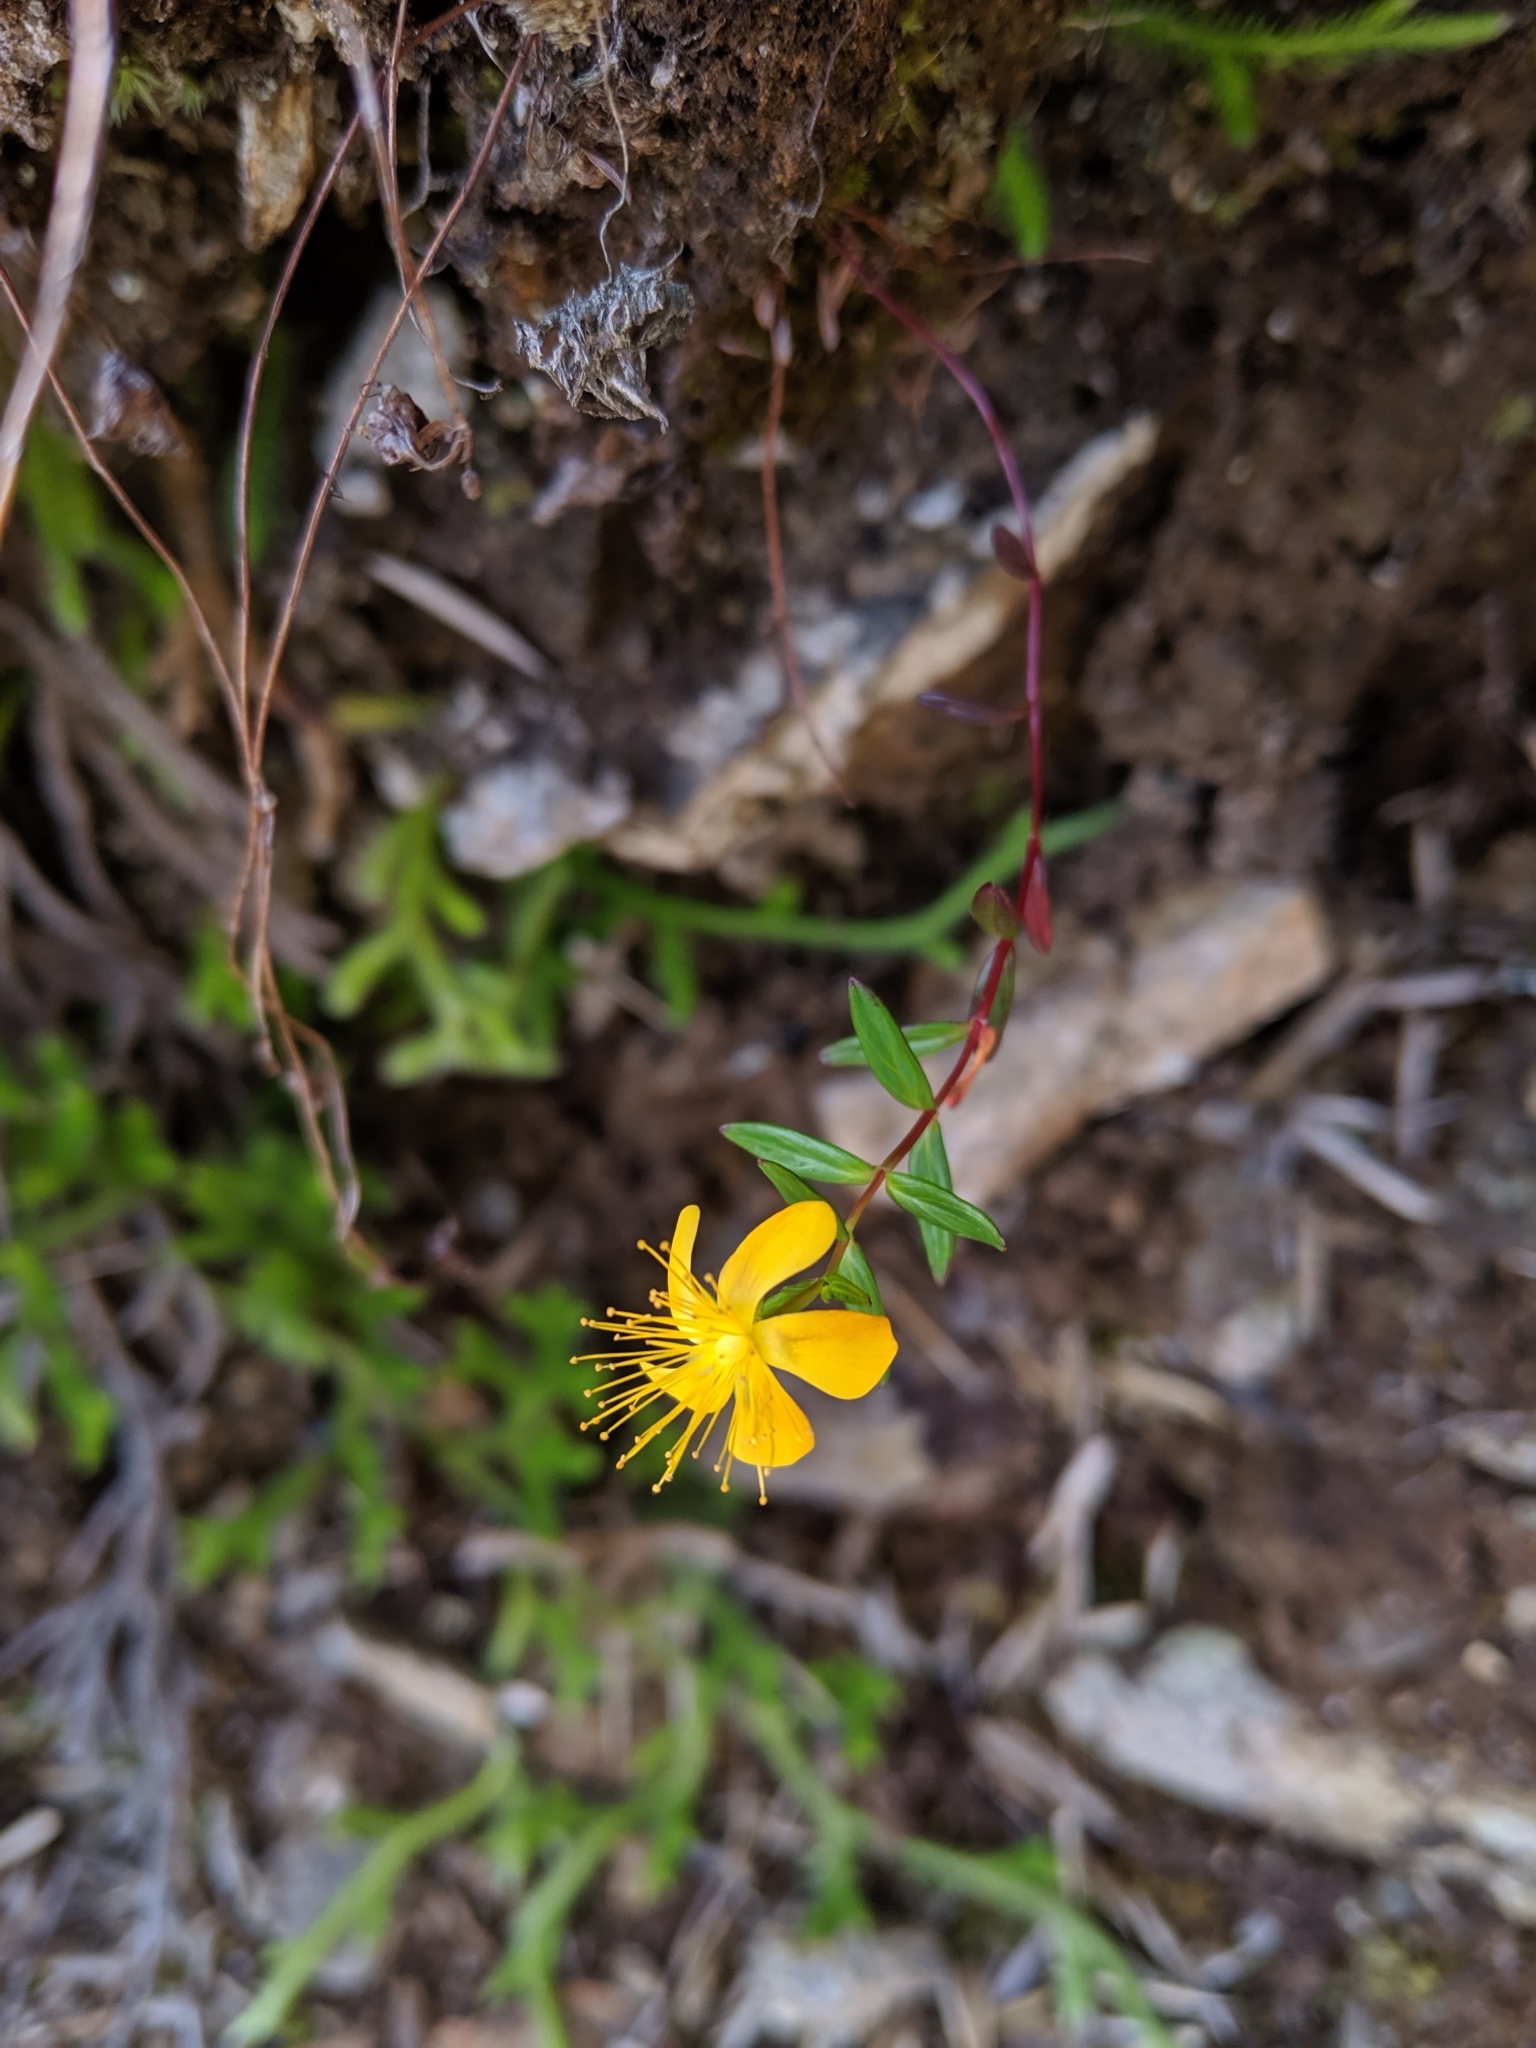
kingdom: Plantae
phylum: Tracheophyta
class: Magnoliopsida
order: Malpighiales
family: Hypericaceae
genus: Hypericum
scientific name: Hypericum nagasawae
